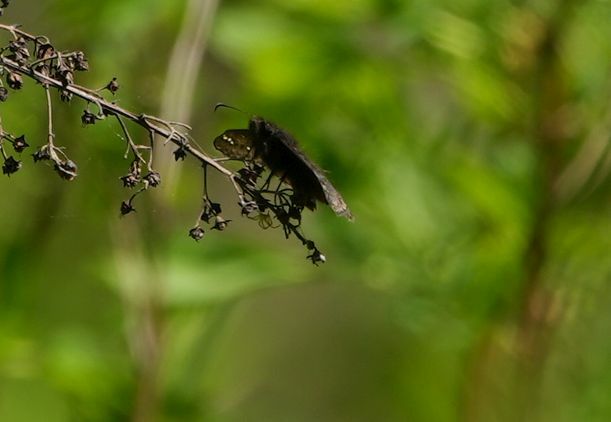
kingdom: Animalia
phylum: Arthropoda
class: Insecta
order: Lepidoptera
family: Hesperiidae
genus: Erynnis
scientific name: Erynnis juvenalis
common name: Juvenal's duskywing
